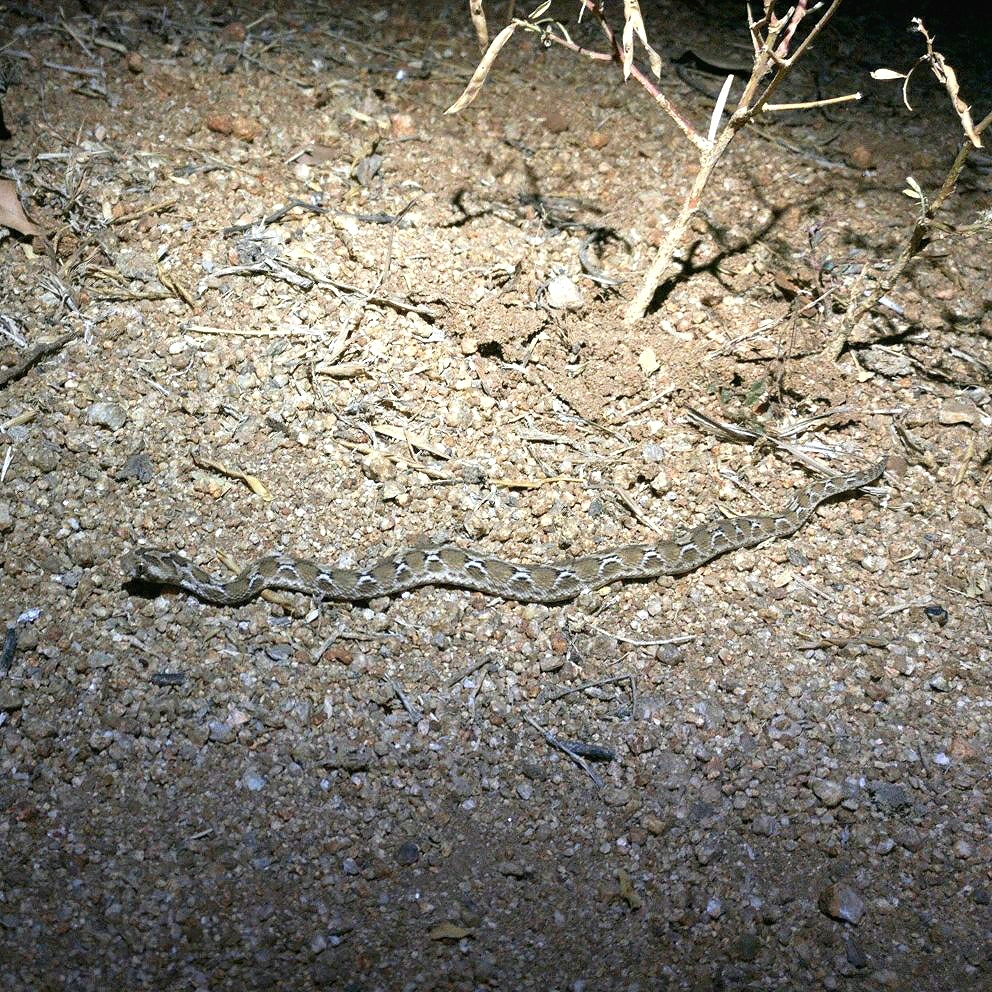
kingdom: Animalia
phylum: Chordata
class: Squamata
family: Viperidae
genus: Echis
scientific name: Echis carinatus
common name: Saw-scaled viper
